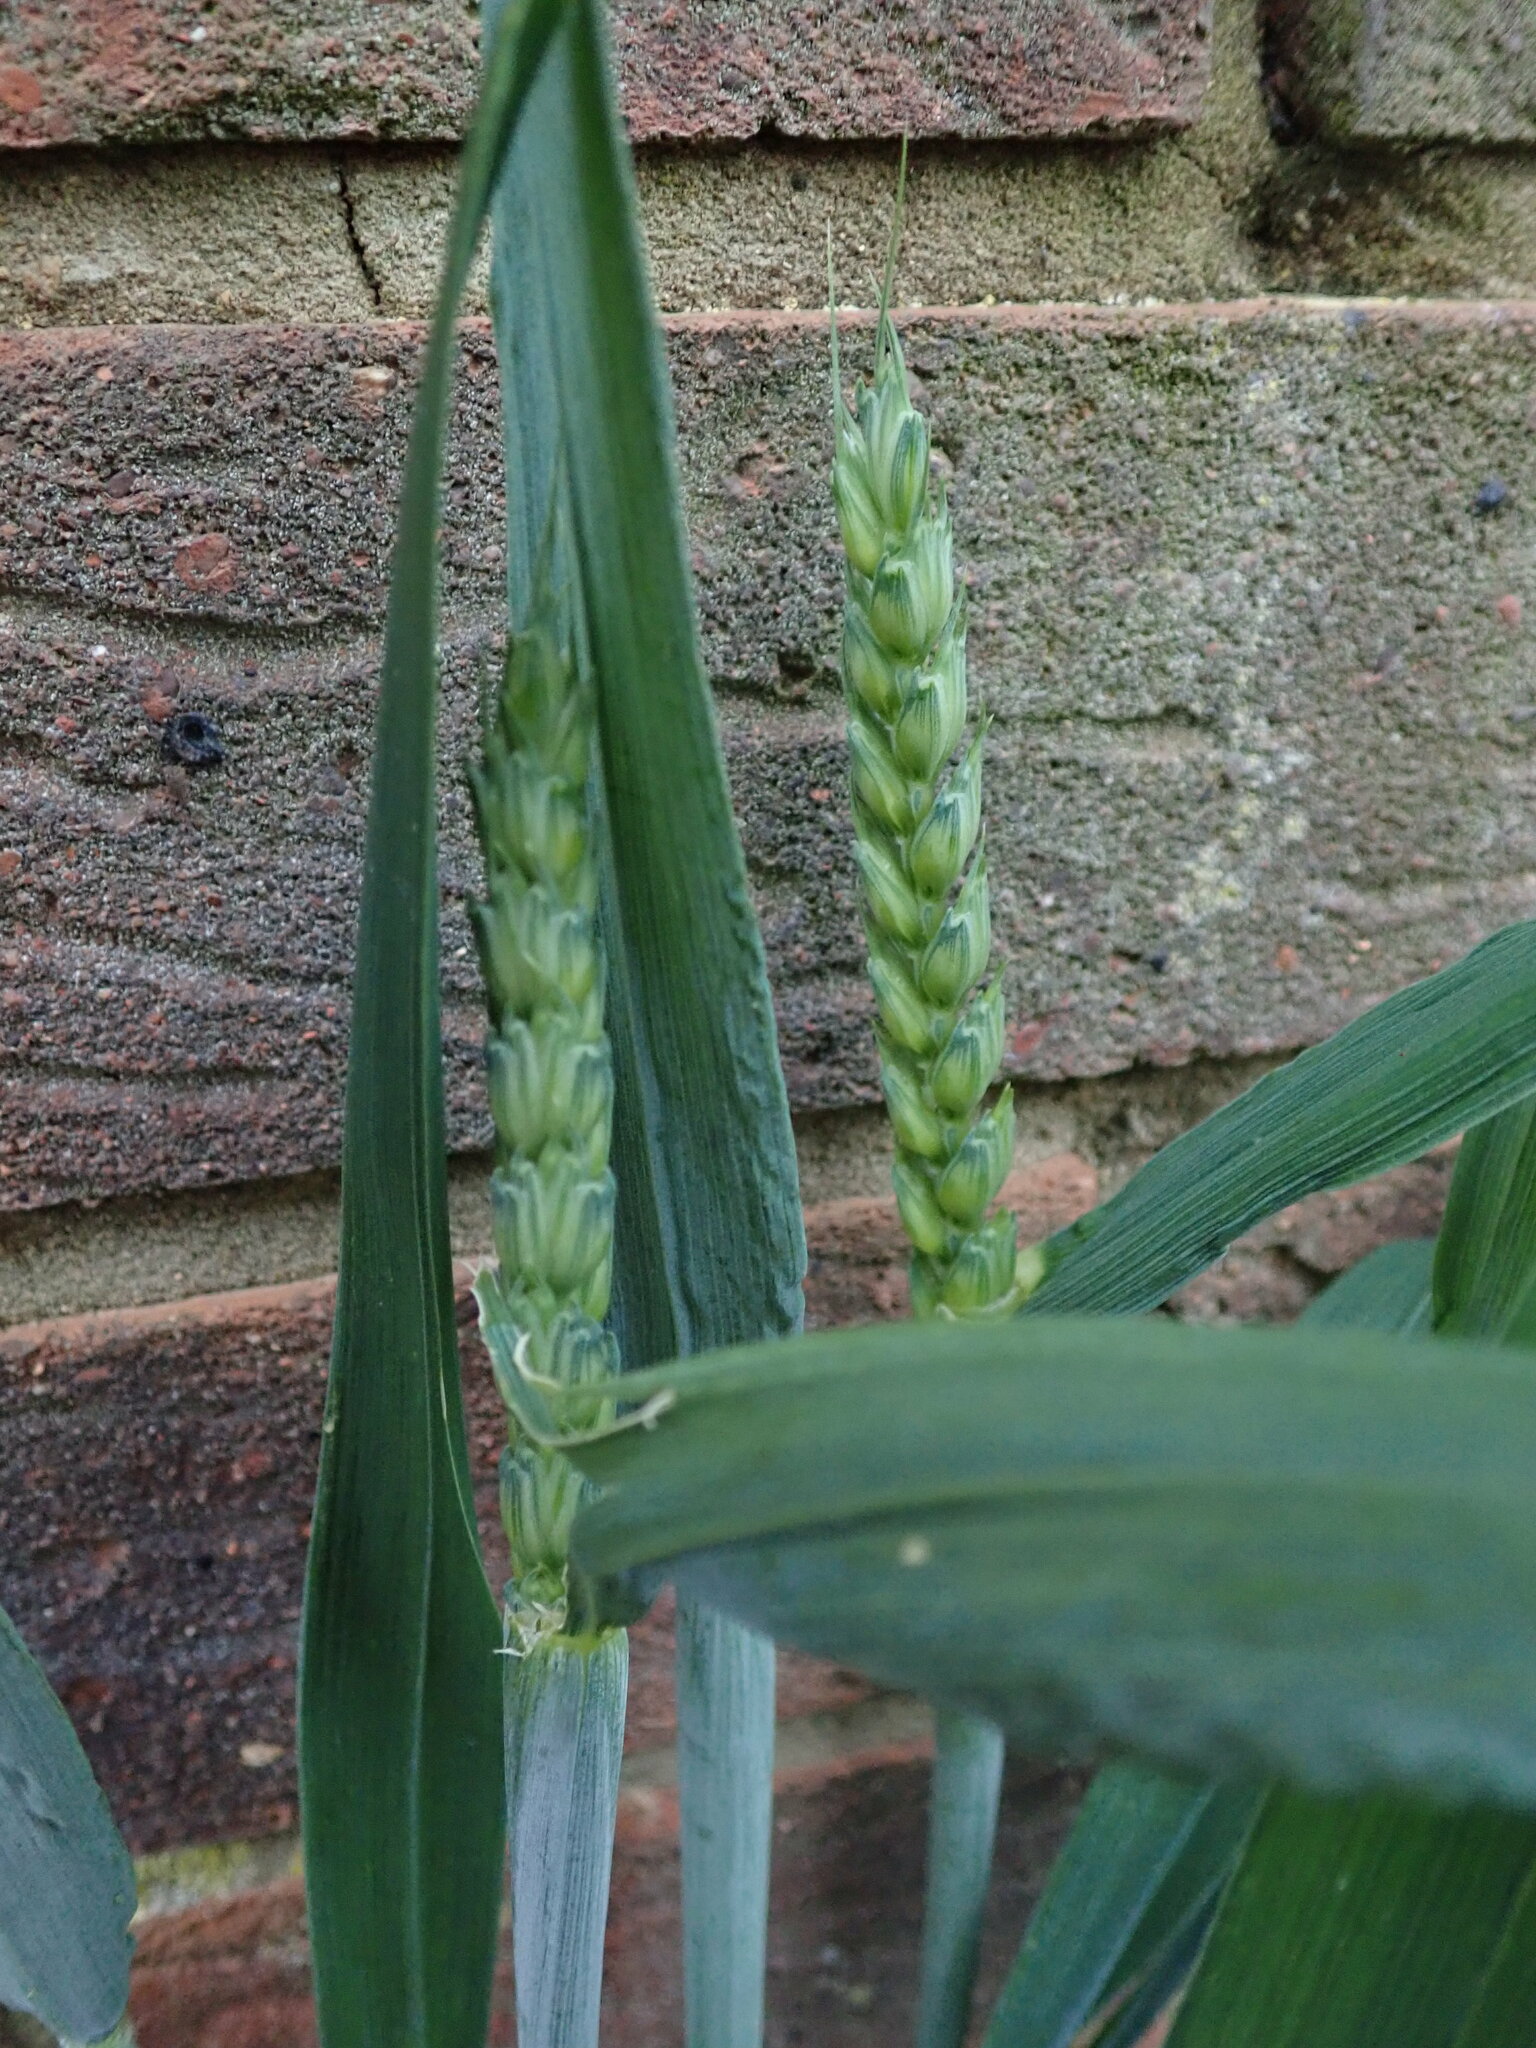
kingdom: Plantae
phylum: Tracheophyta
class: Liliopsida
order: Poales
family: Poaceae
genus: Triticum
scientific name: Triticum aestivum
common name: Common wheat
